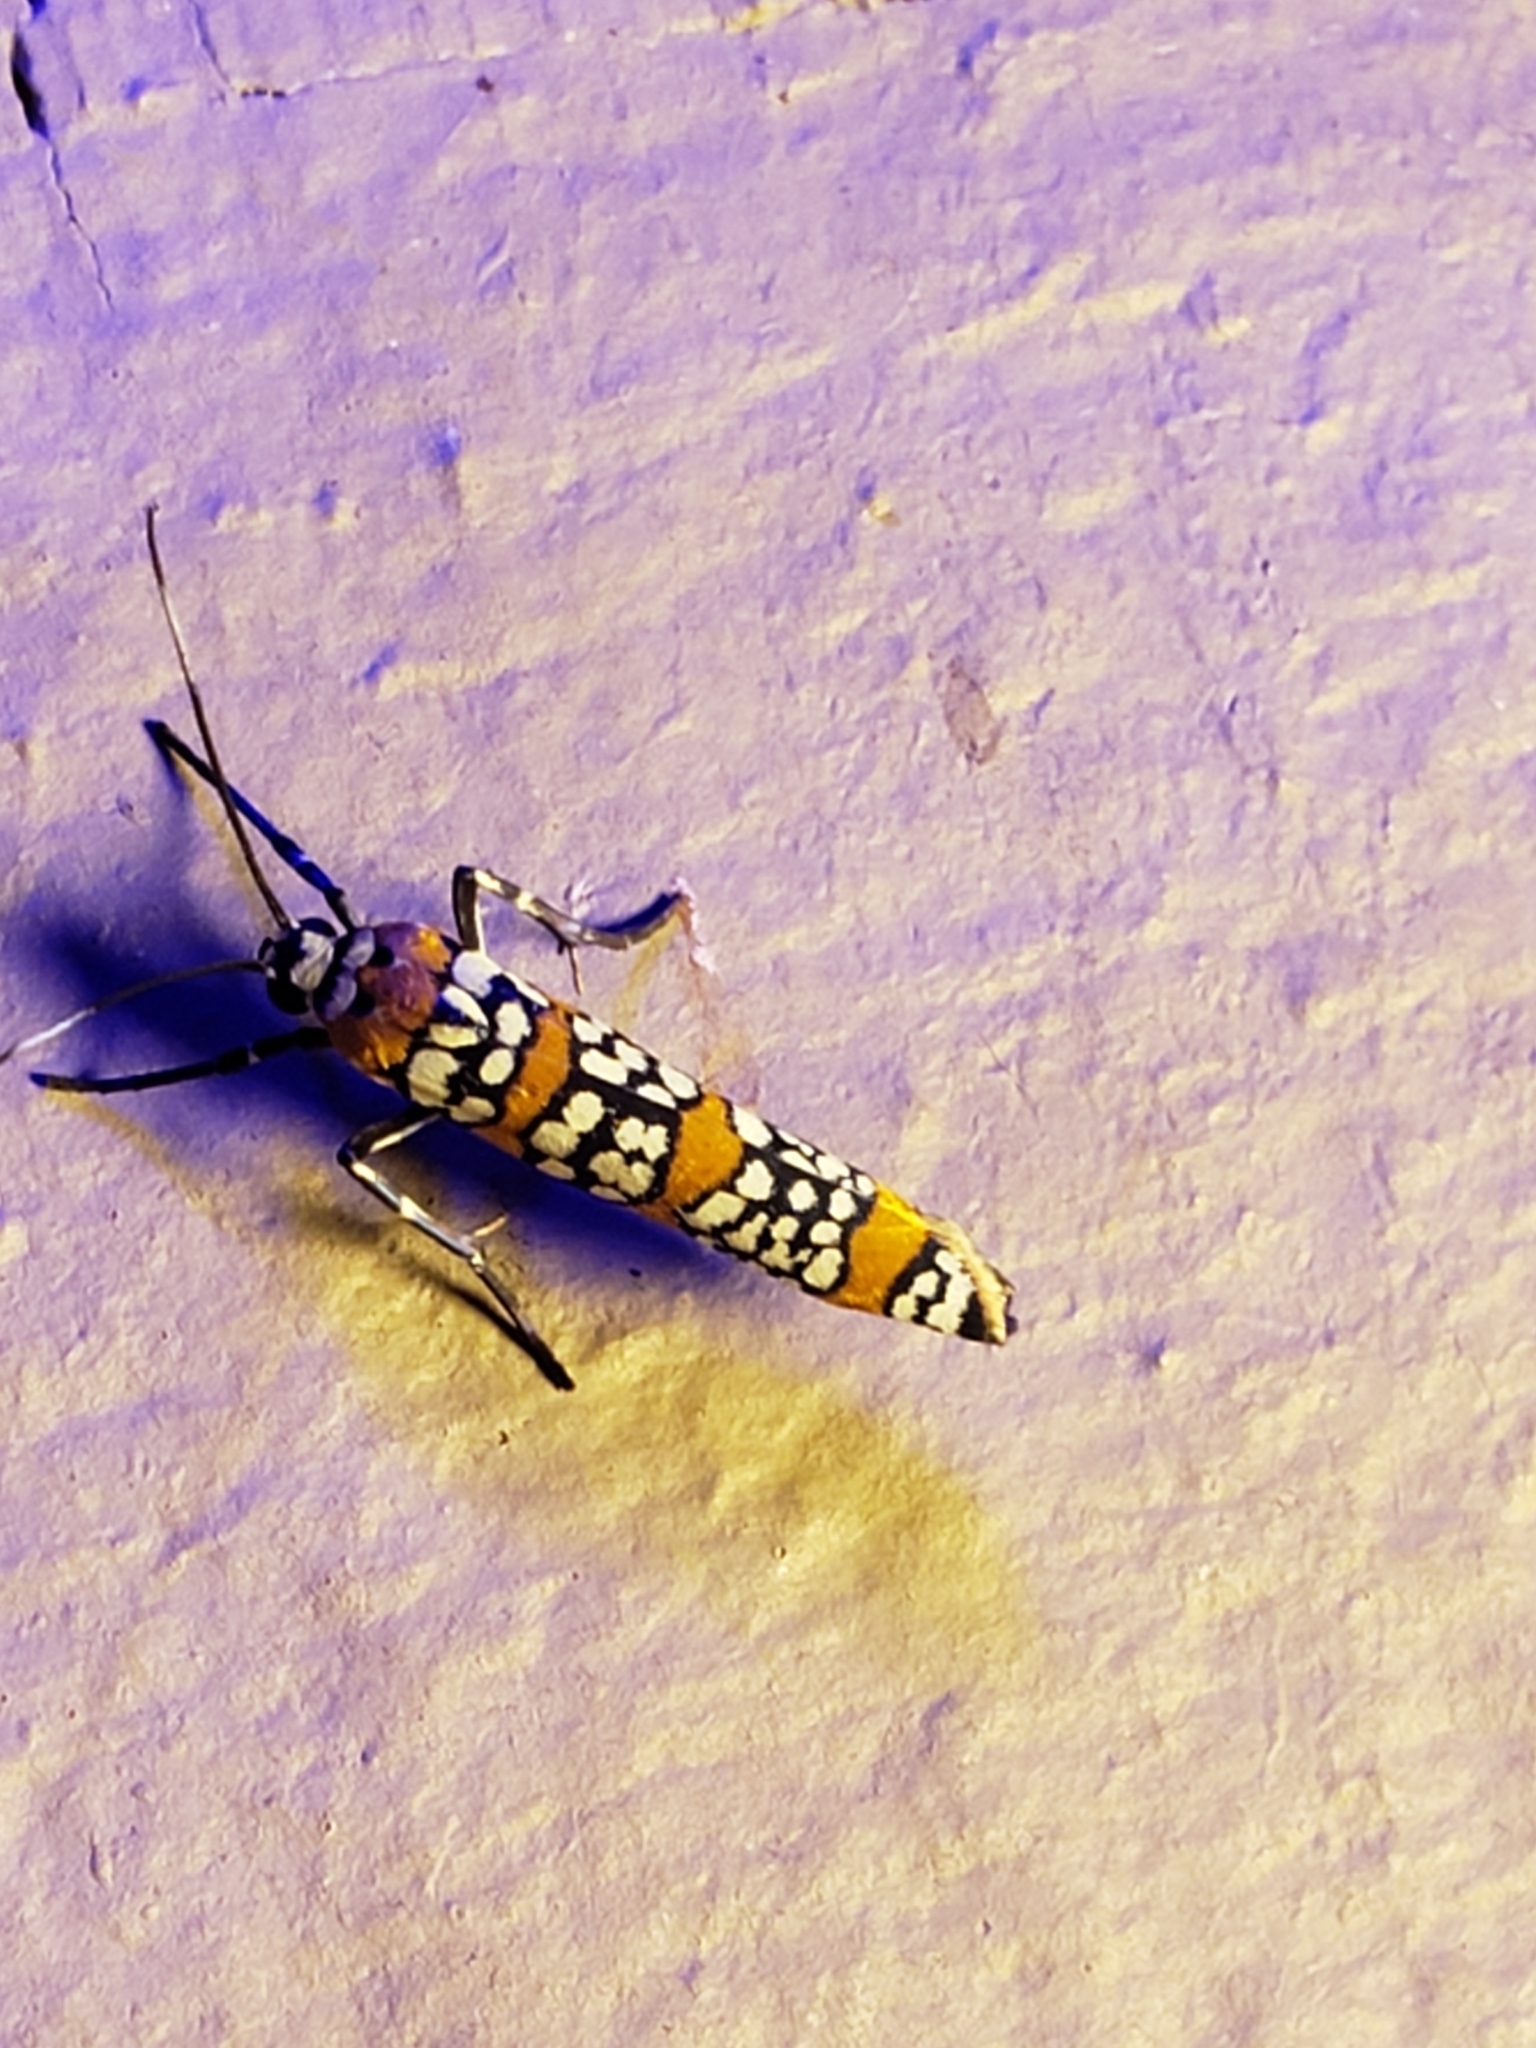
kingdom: Animalia
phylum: Arthropoda
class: Insecta
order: Lepidoptera
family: Attevidae
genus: Atteva
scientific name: Atteva punctella
